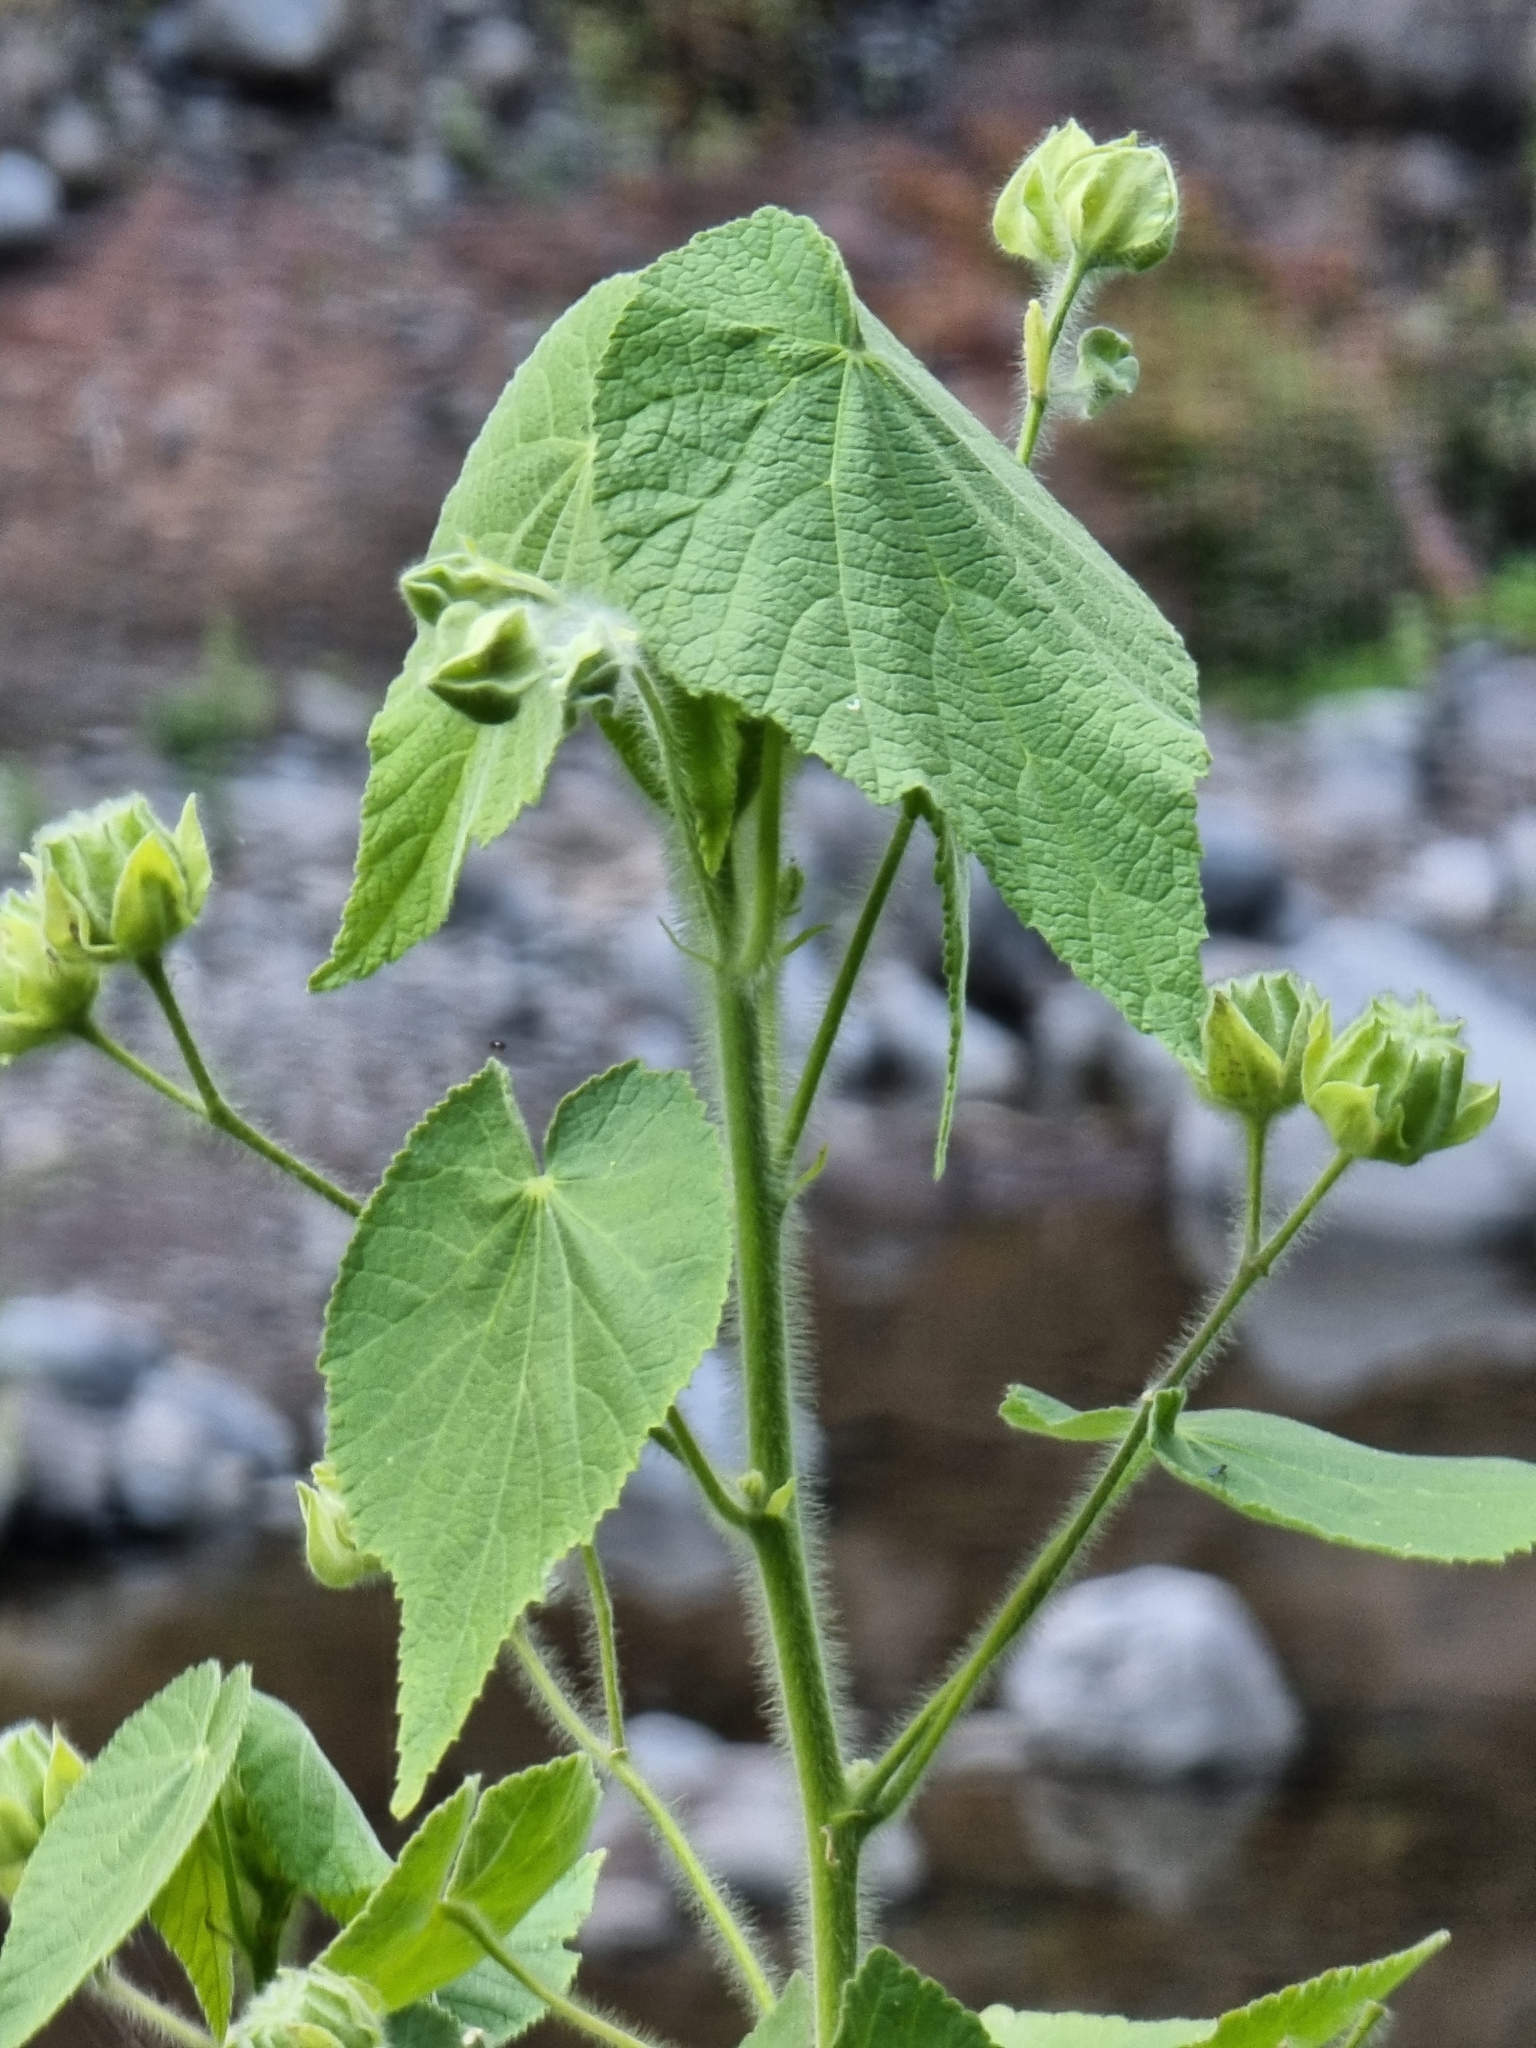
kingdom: Plantae
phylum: Tracheophyta
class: Magnoliopsida
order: Malvales
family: Malvaceae
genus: Abutilon
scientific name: Abutilon grandifolium
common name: Hairy abutilon
